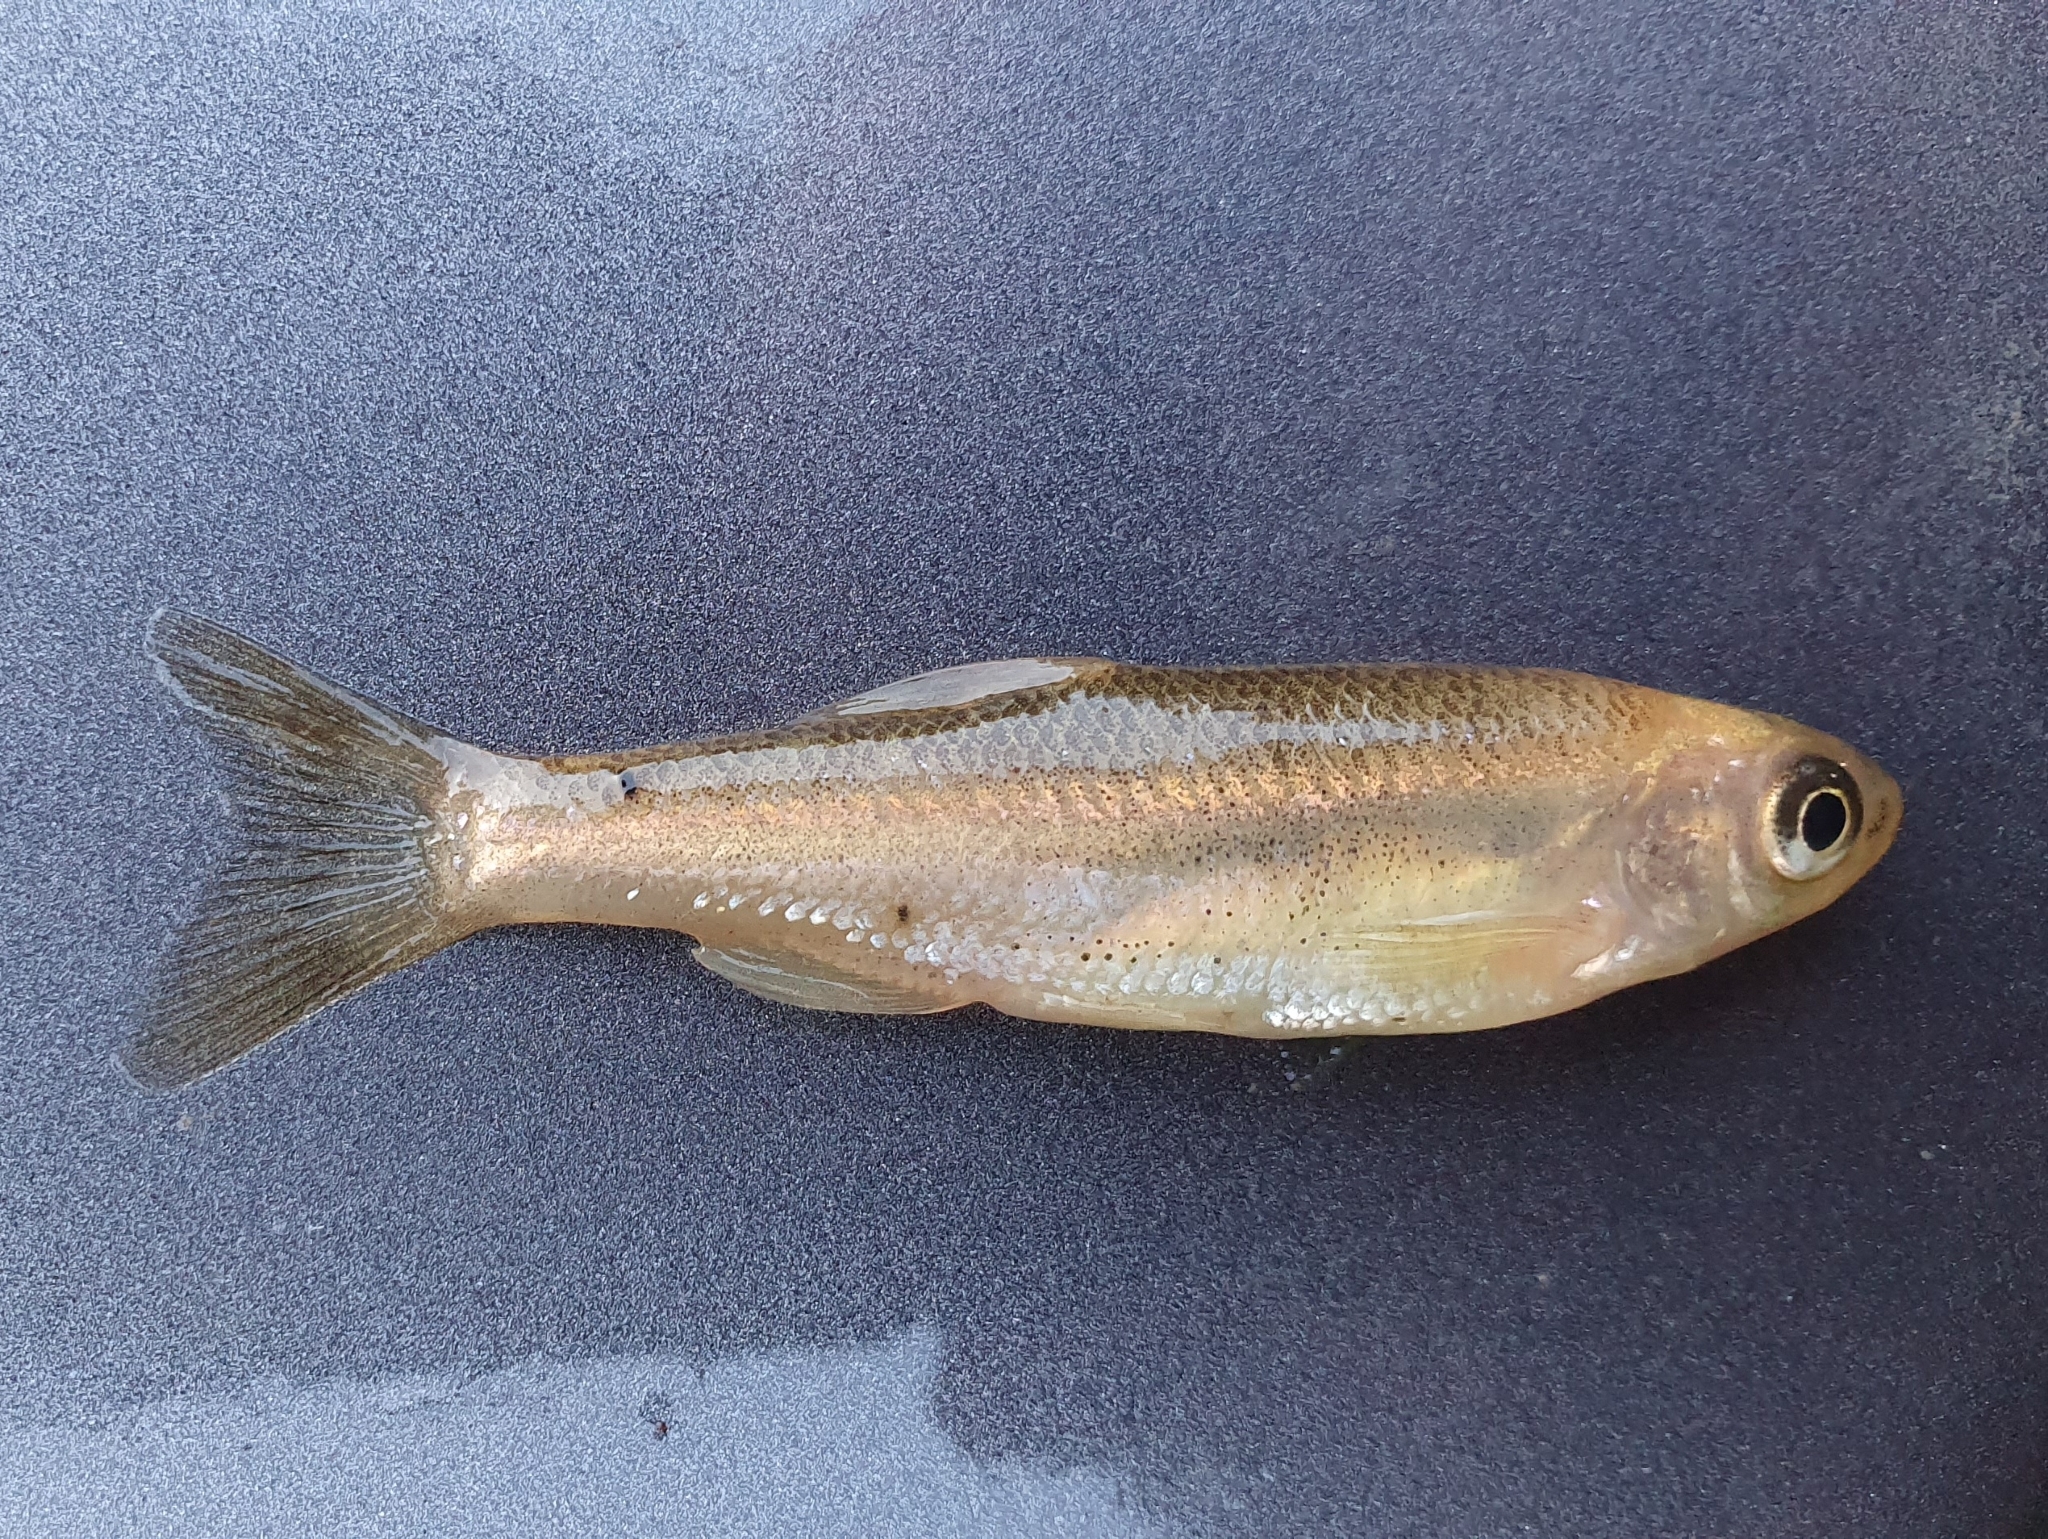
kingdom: Animalia
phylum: Chordata
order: Cypriniformes
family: Cyprinidae
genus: Pseudophoxinus
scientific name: Pseudophoxinus callensis
